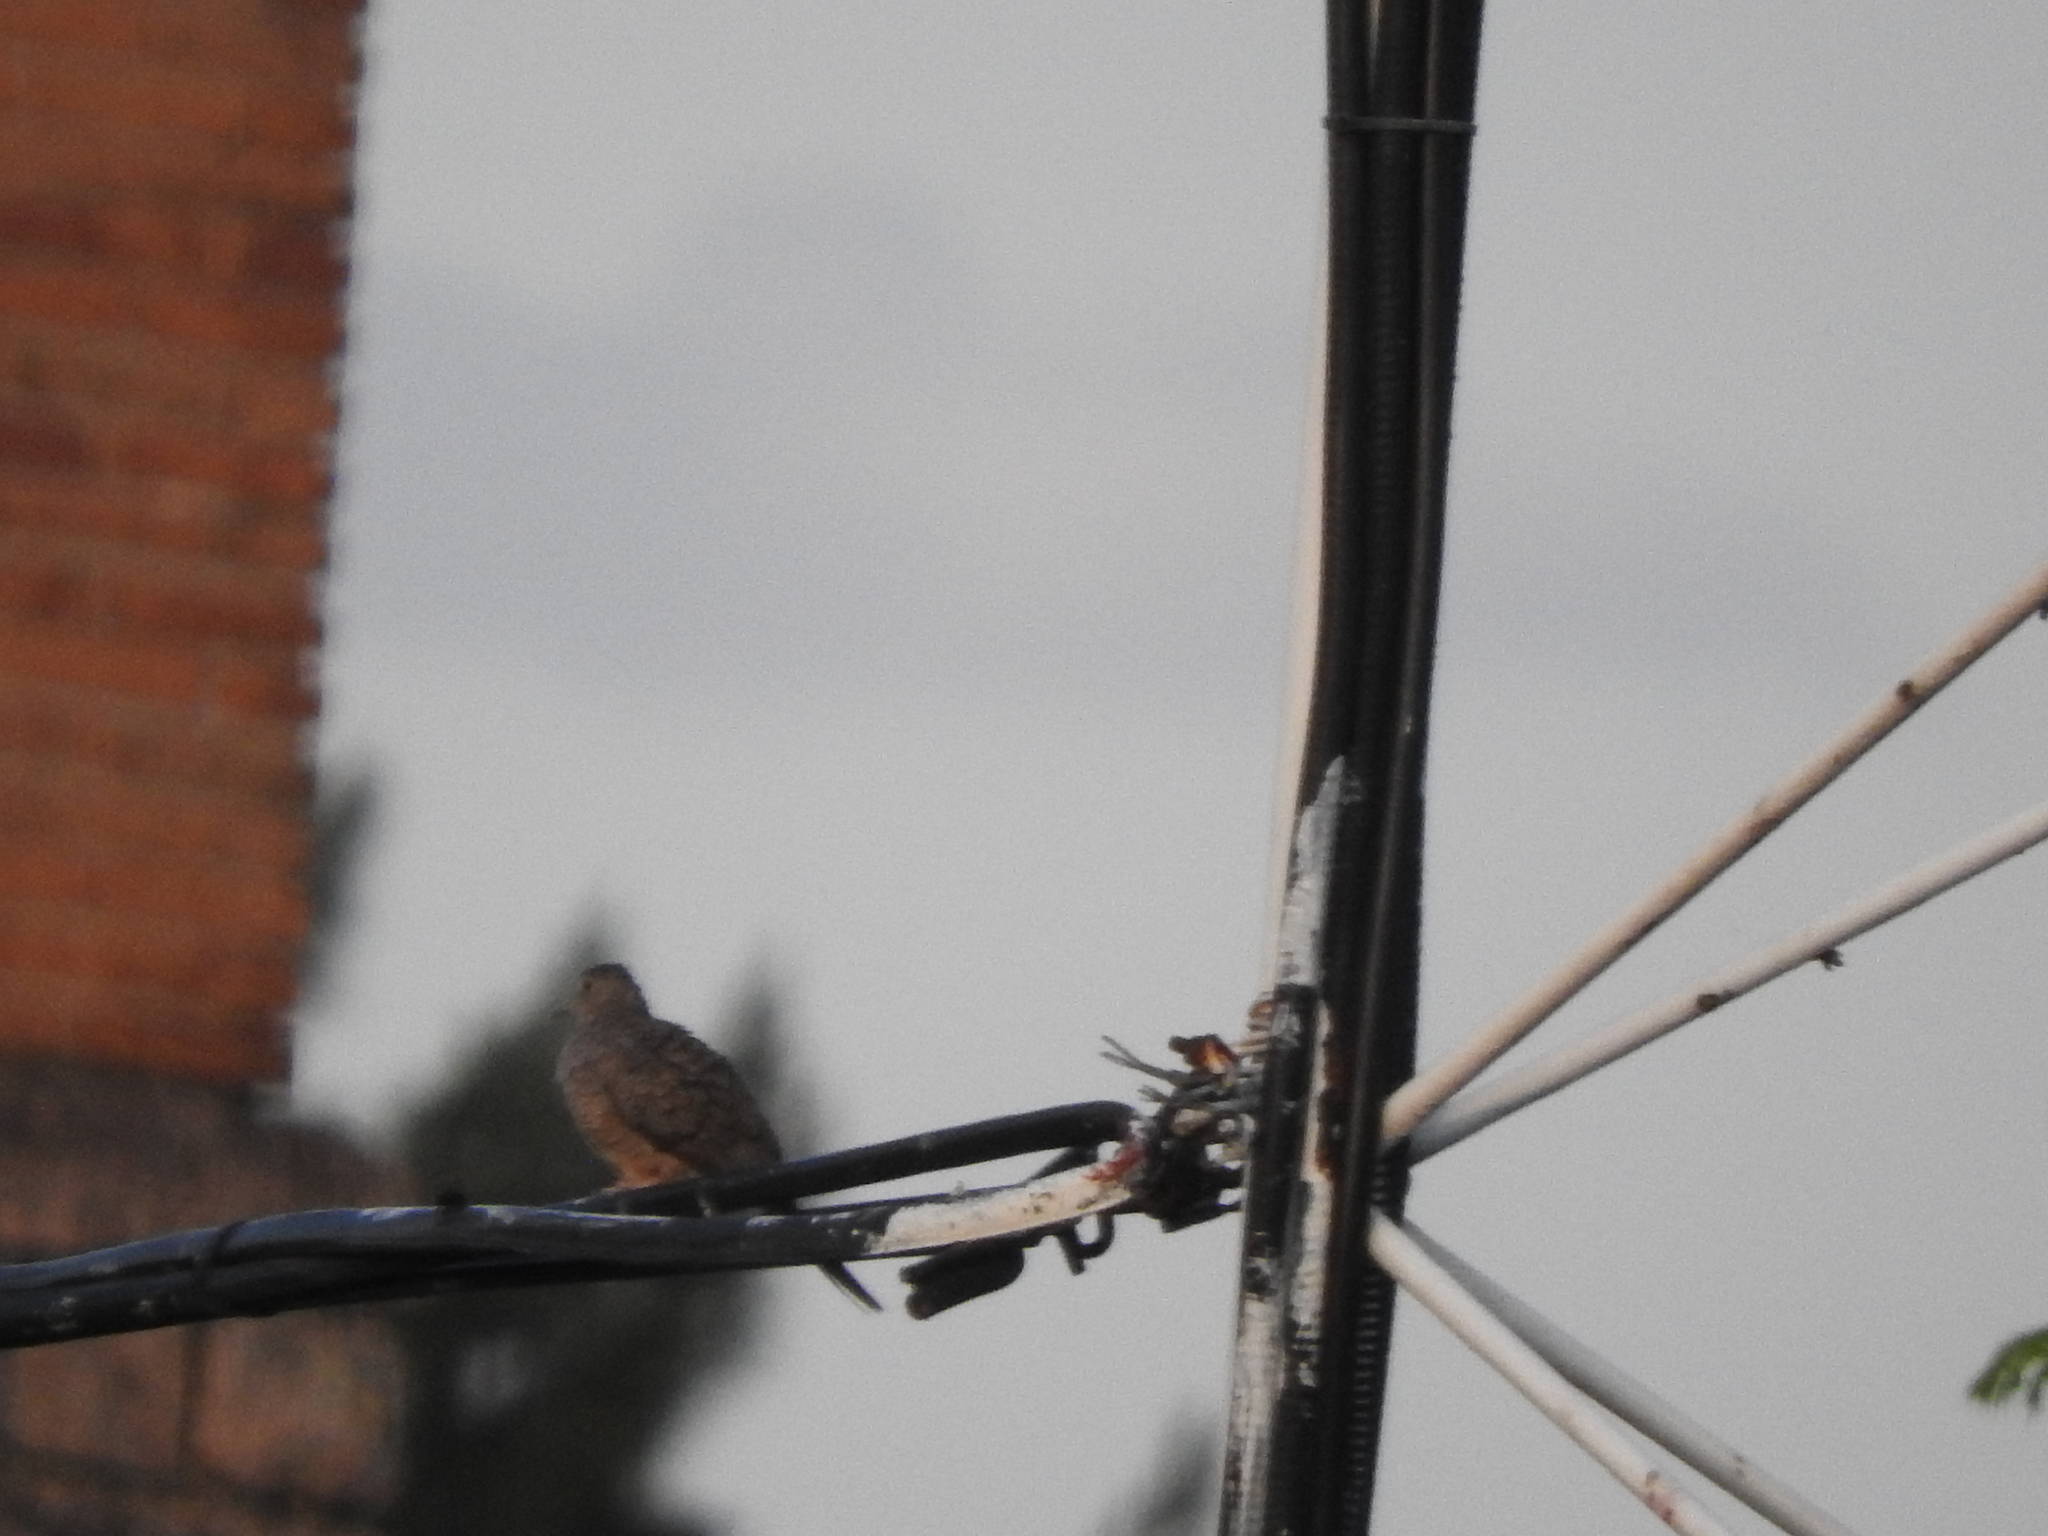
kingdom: Animalia
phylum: Chordata
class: Aves
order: Columbiformes
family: Columbidae
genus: Columbina
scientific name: Columbina inca
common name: Inca dove
